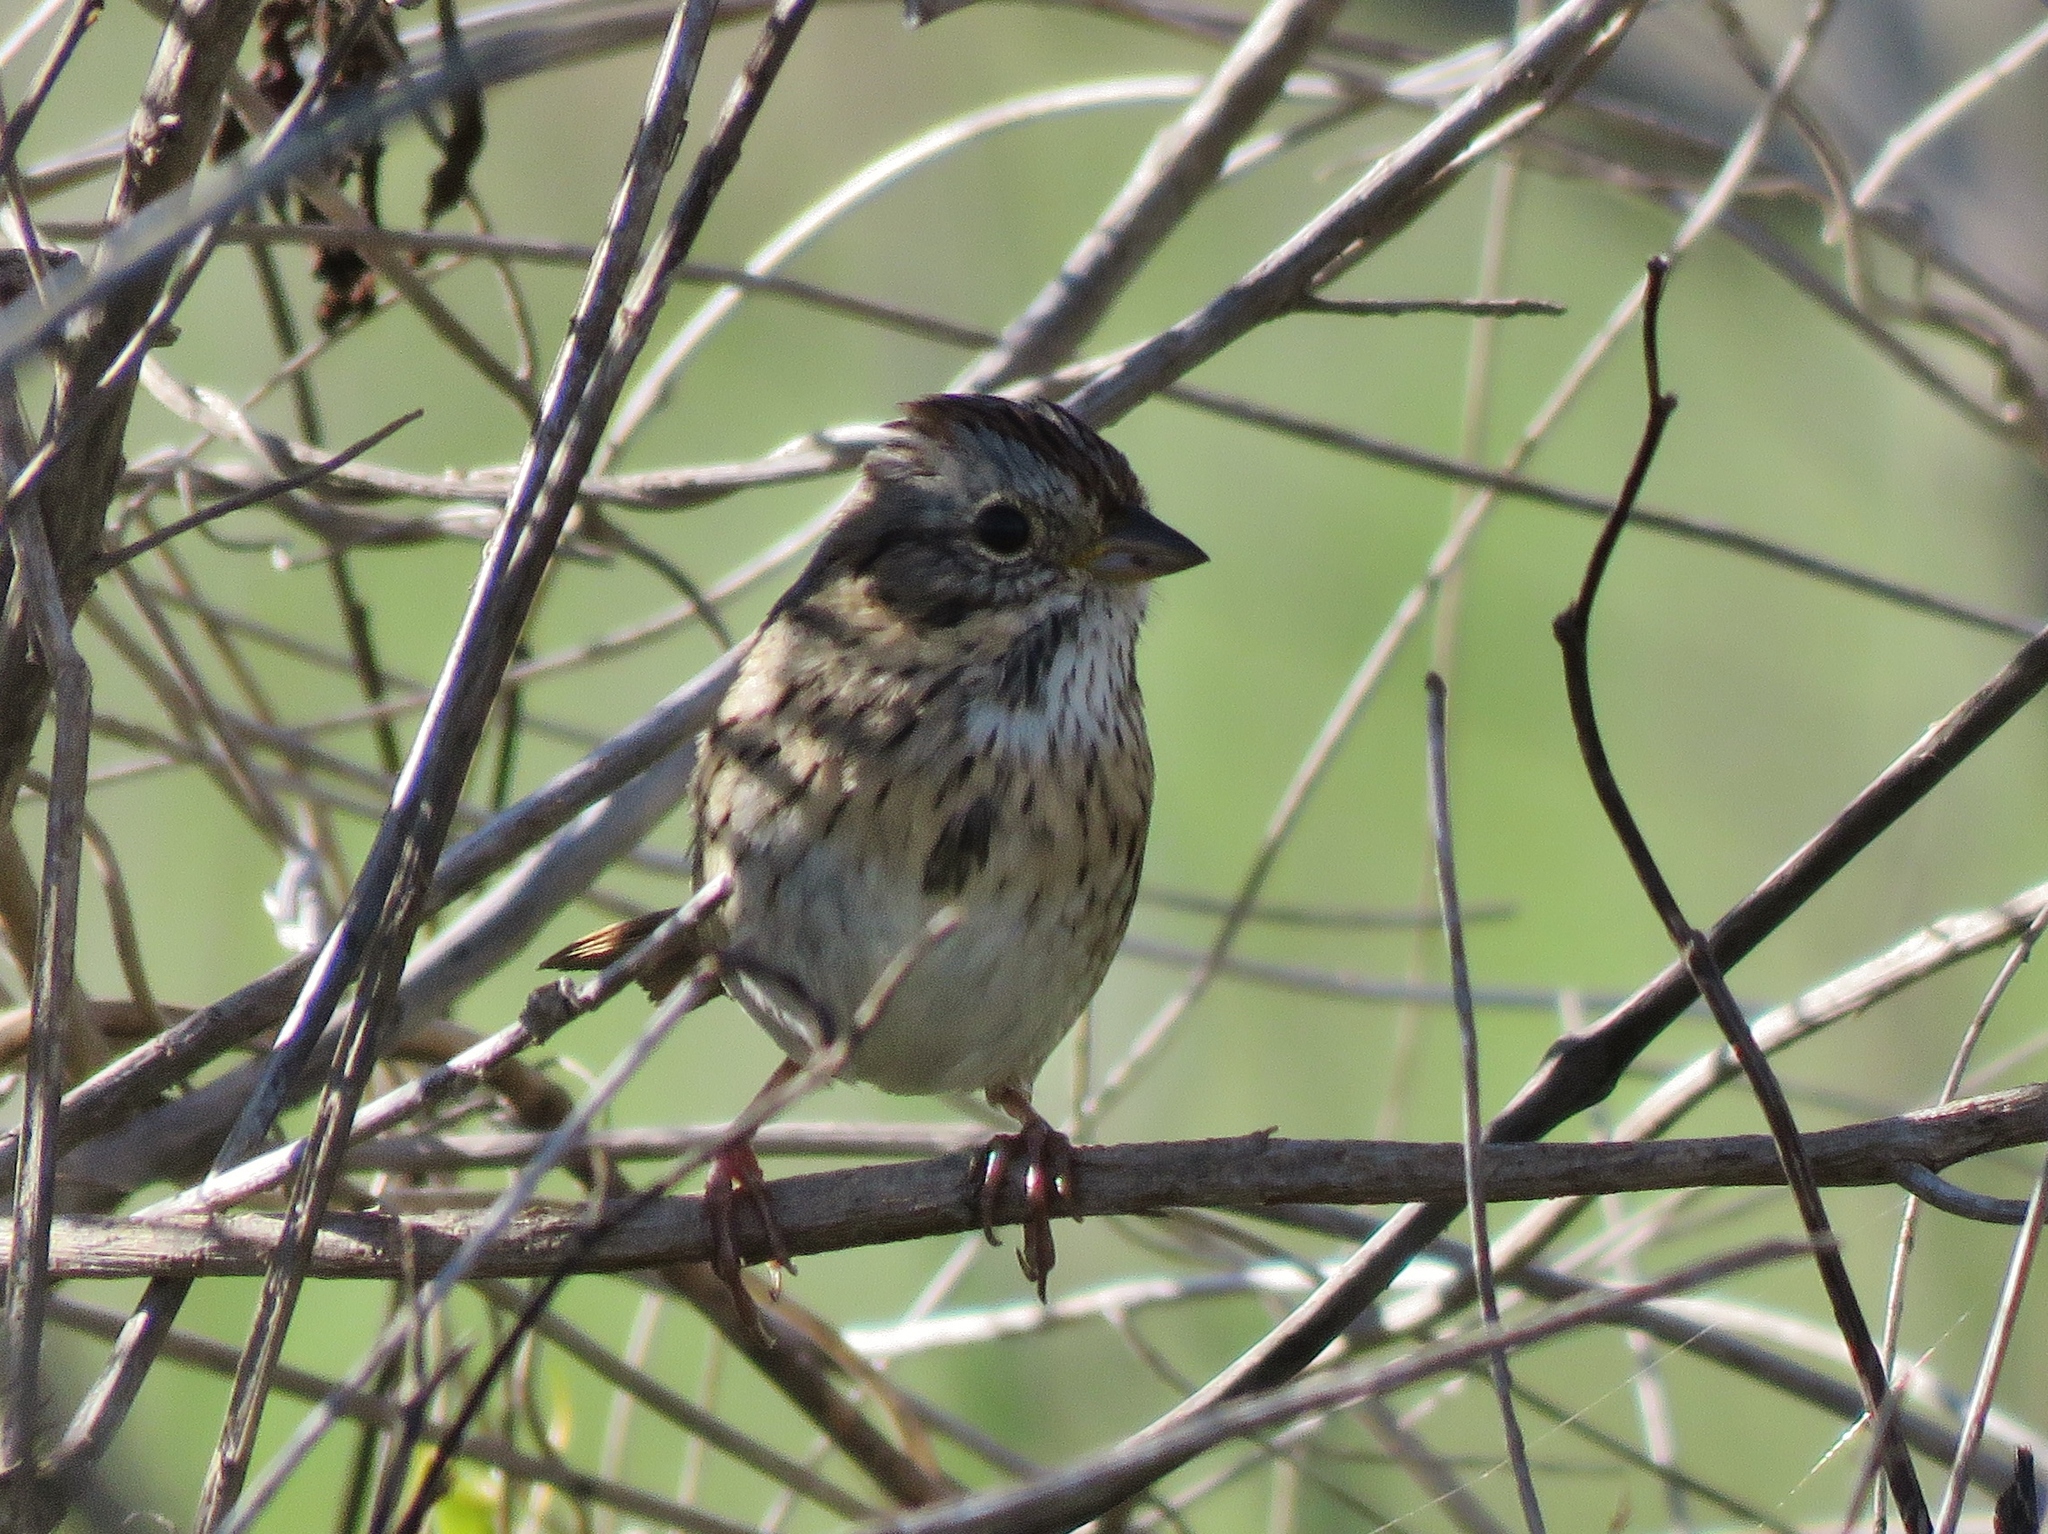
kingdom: Animalia
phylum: Chordata
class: Aves
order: Passeriformes
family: Passerellidae
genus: Melospiza
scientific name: Melospiza lincolnii
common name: Lincoln's sparrow
